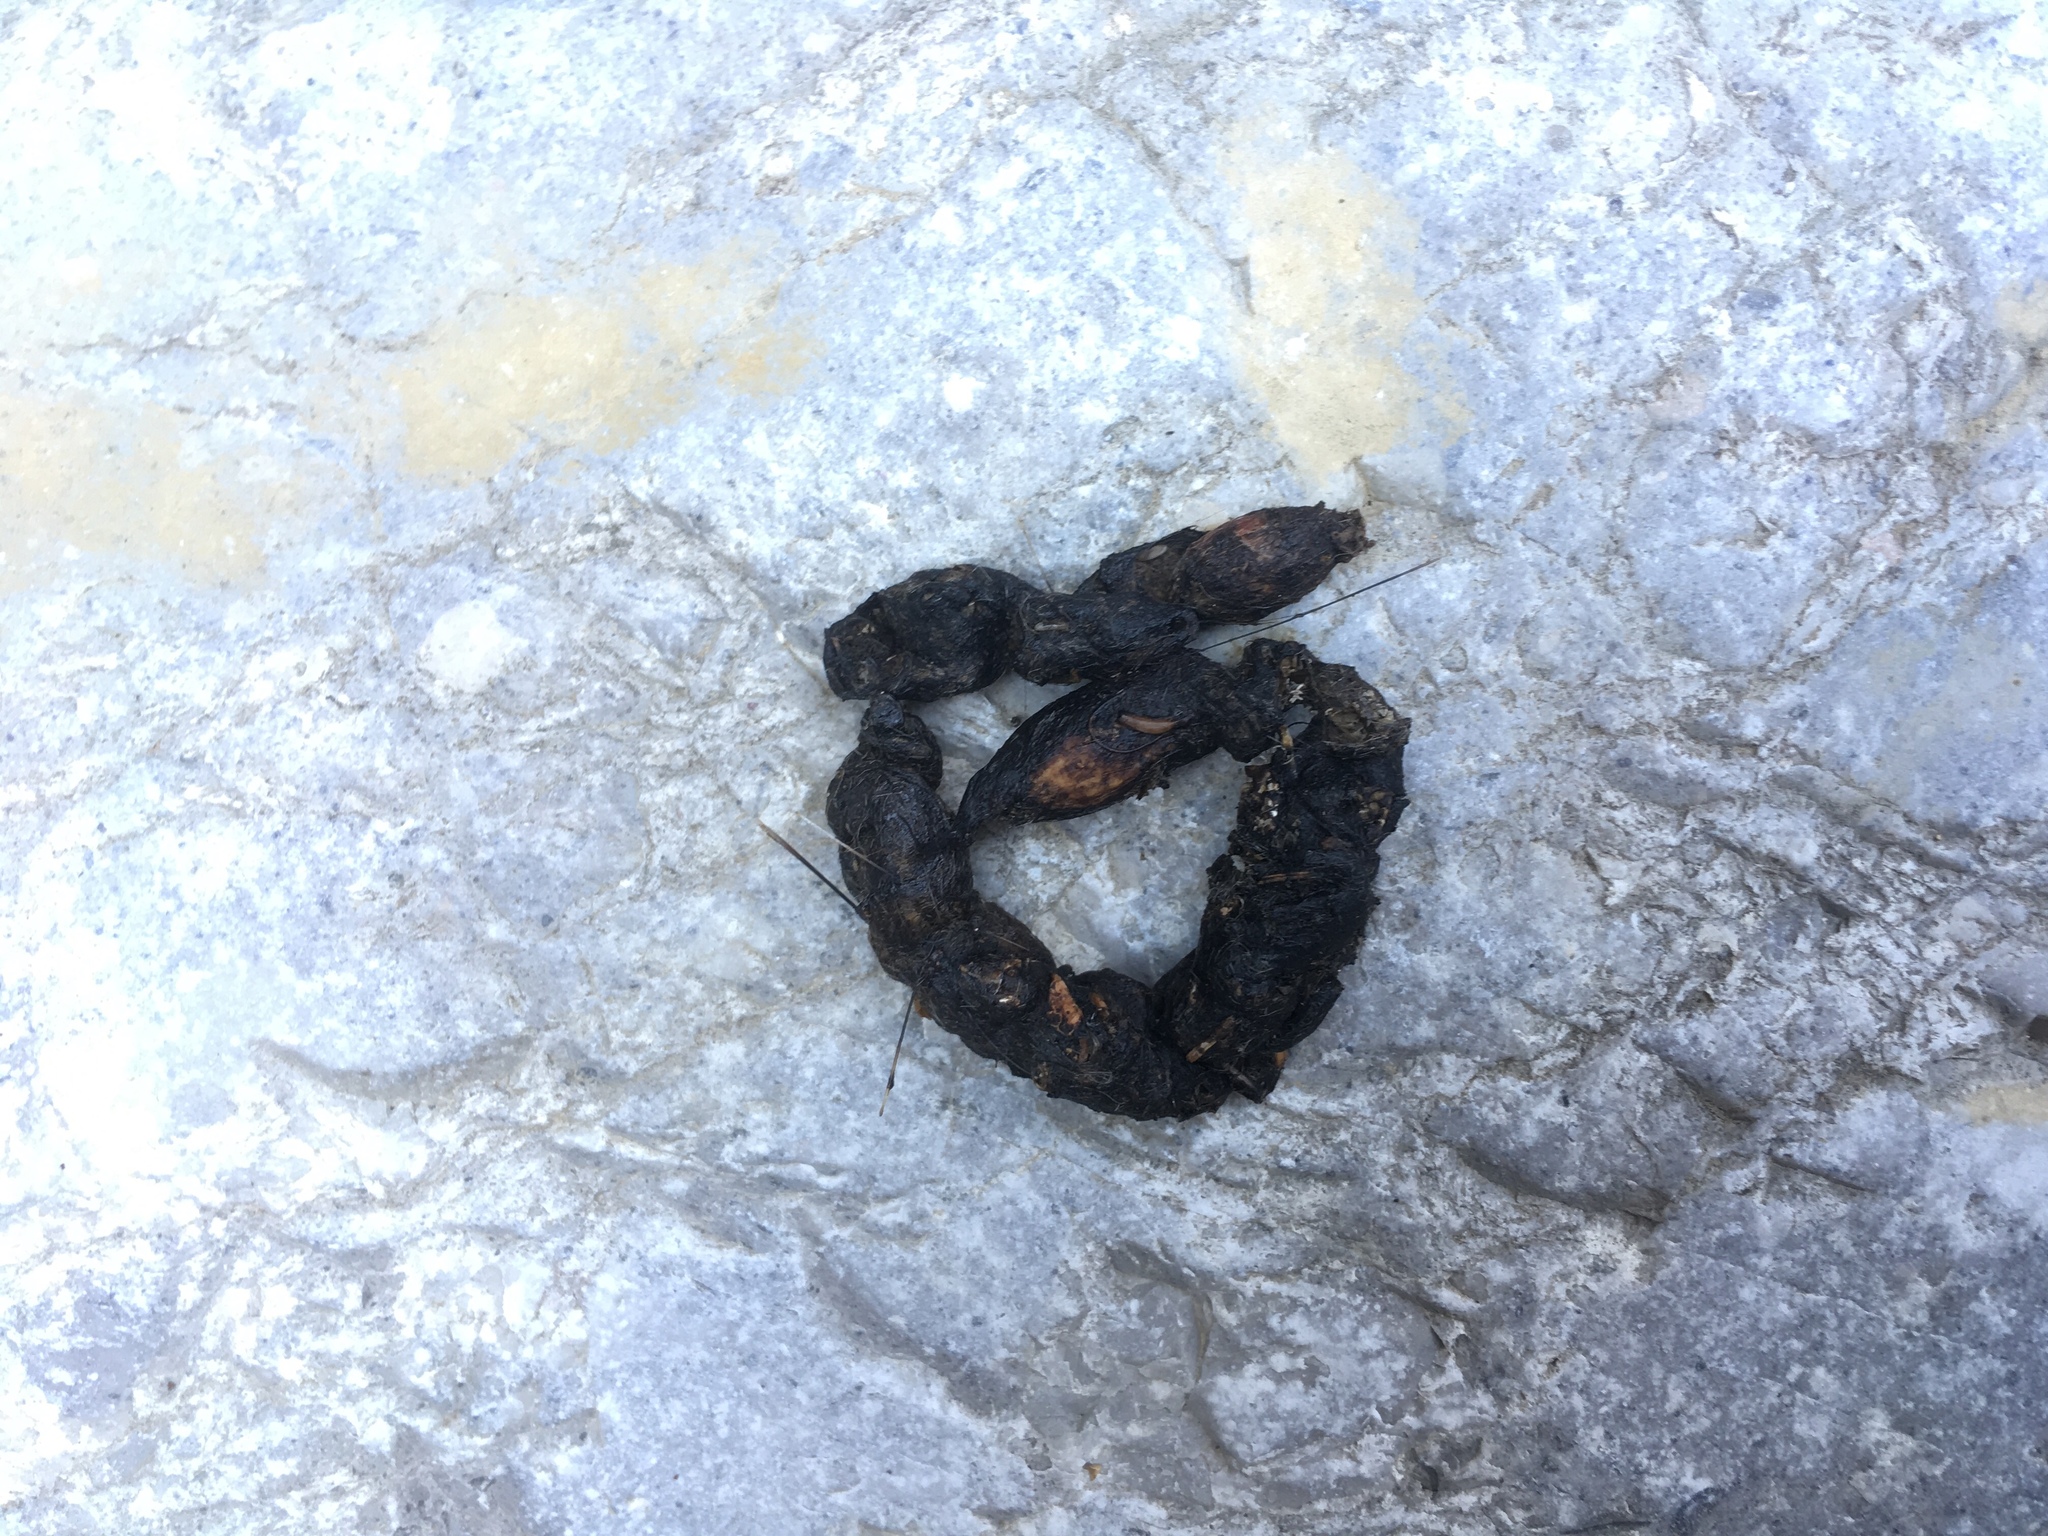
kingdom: Animalia
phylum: Chordata
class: Mammalia
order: Carnivora
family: Mustelidae
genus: Martes
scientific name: Martes foina
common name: Beech marten
